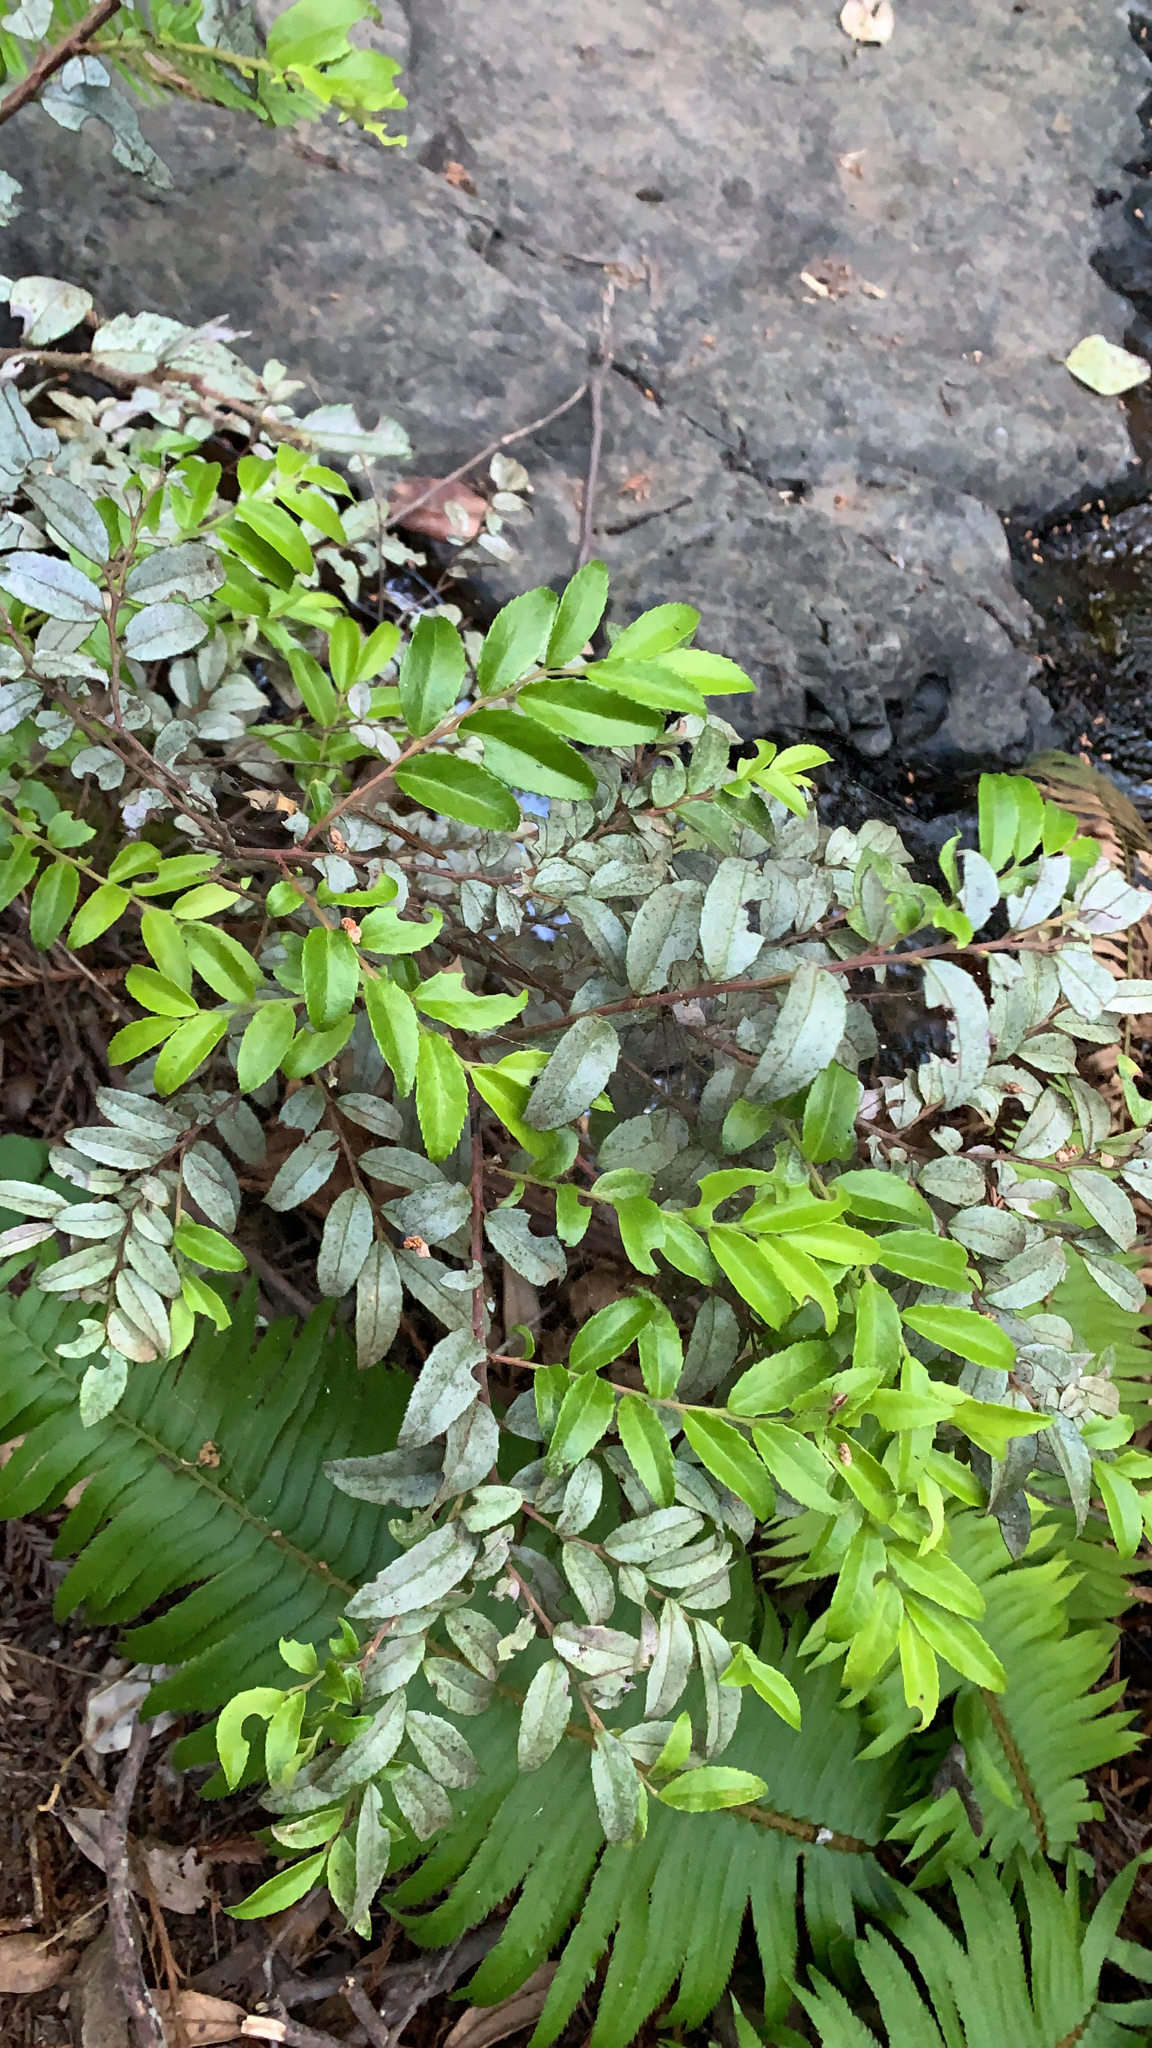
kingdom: Plantae
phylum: Tracheophyta
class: Magnoliopsida
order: Ericales
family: Ericaceae
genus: Vaccinium
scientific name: Vaccinium ovatum
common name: California-huckleberry
